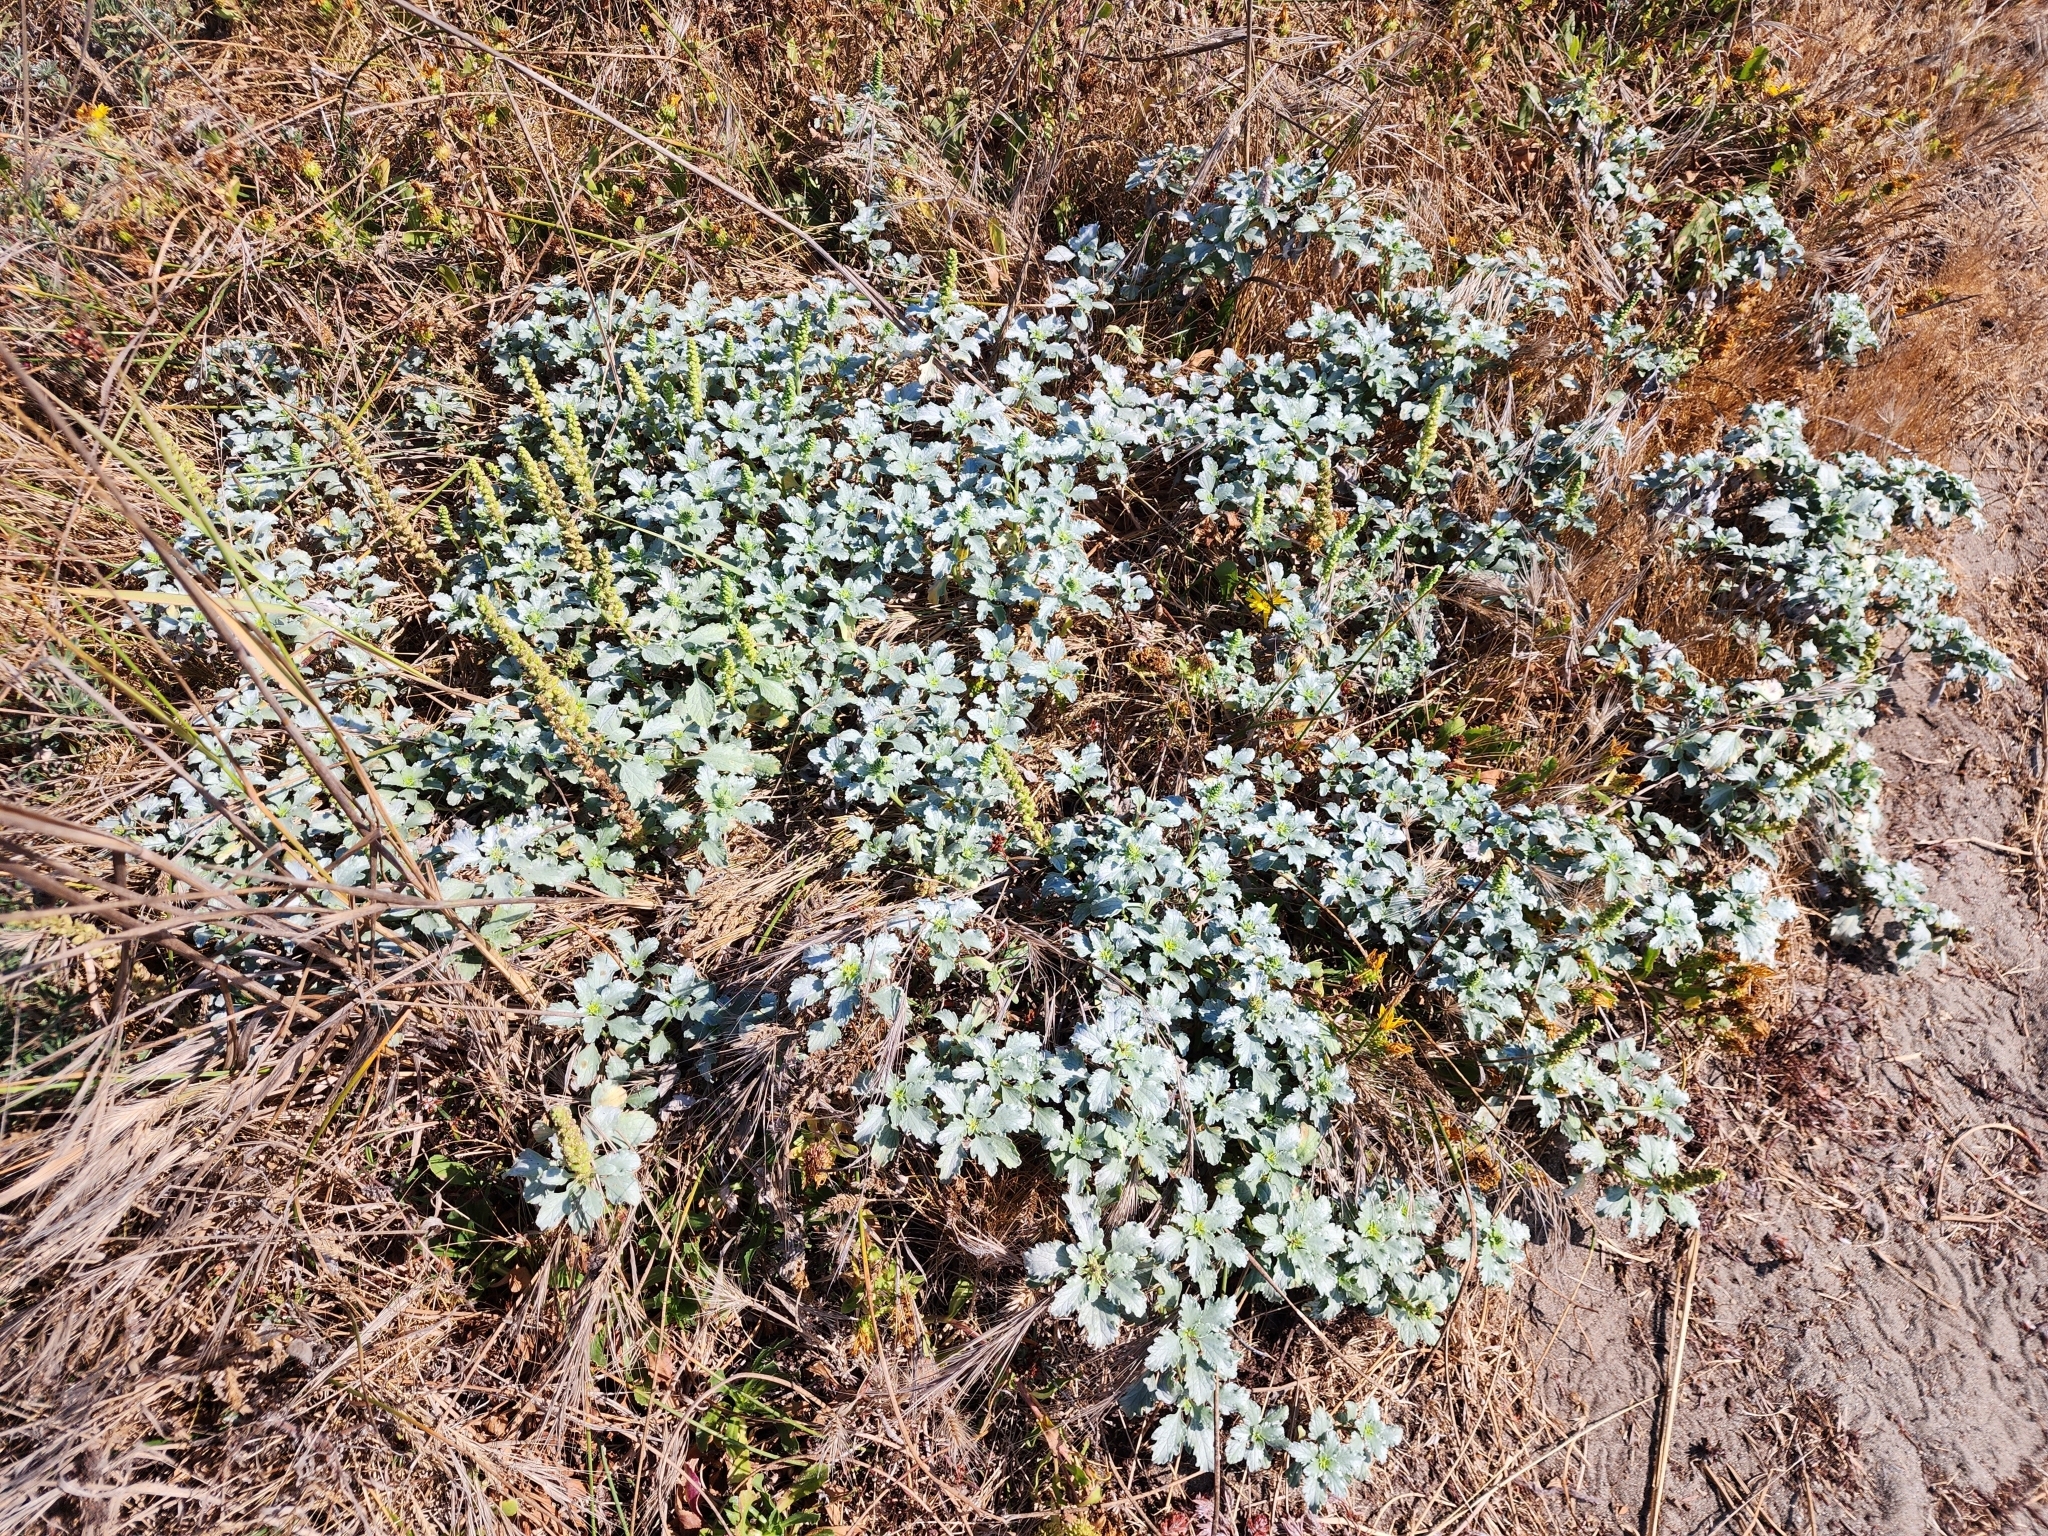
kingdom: Plantae
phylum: Tracheophyta
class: Magnoliopsida
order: Asterales
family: Asteraceae
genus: Ambrosia
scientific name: Ambrosia chamissonis
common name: Beachbur
